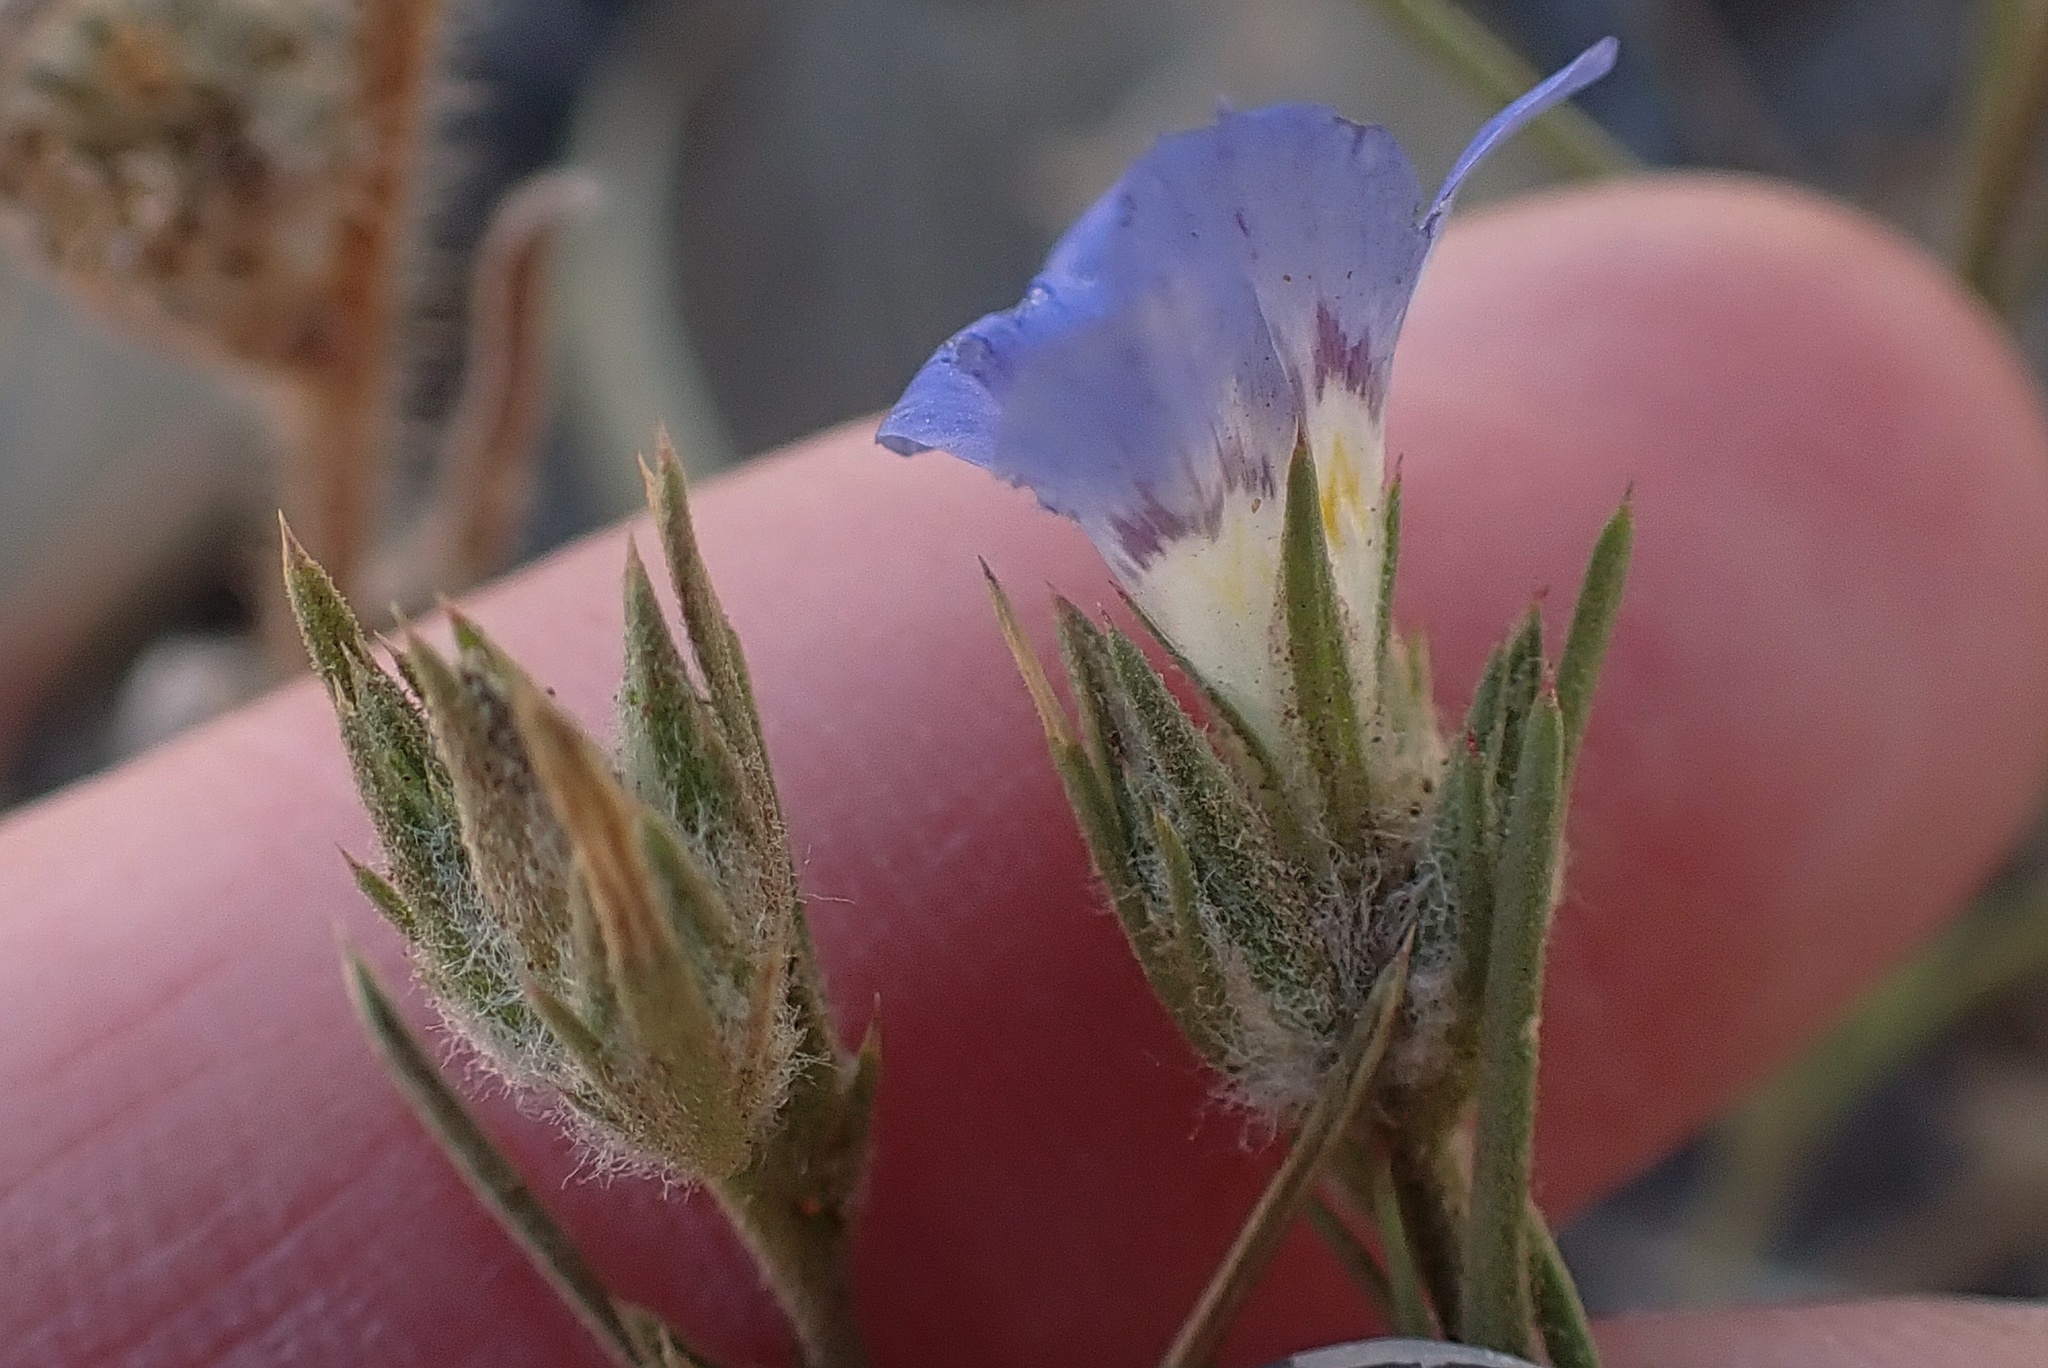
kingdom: Plantae
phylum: Tracheophyta
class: Magnoliopsida
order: Ericales
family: Polemoniaceae
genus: Eriastrum
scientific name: Eriastrum sapphirinum
